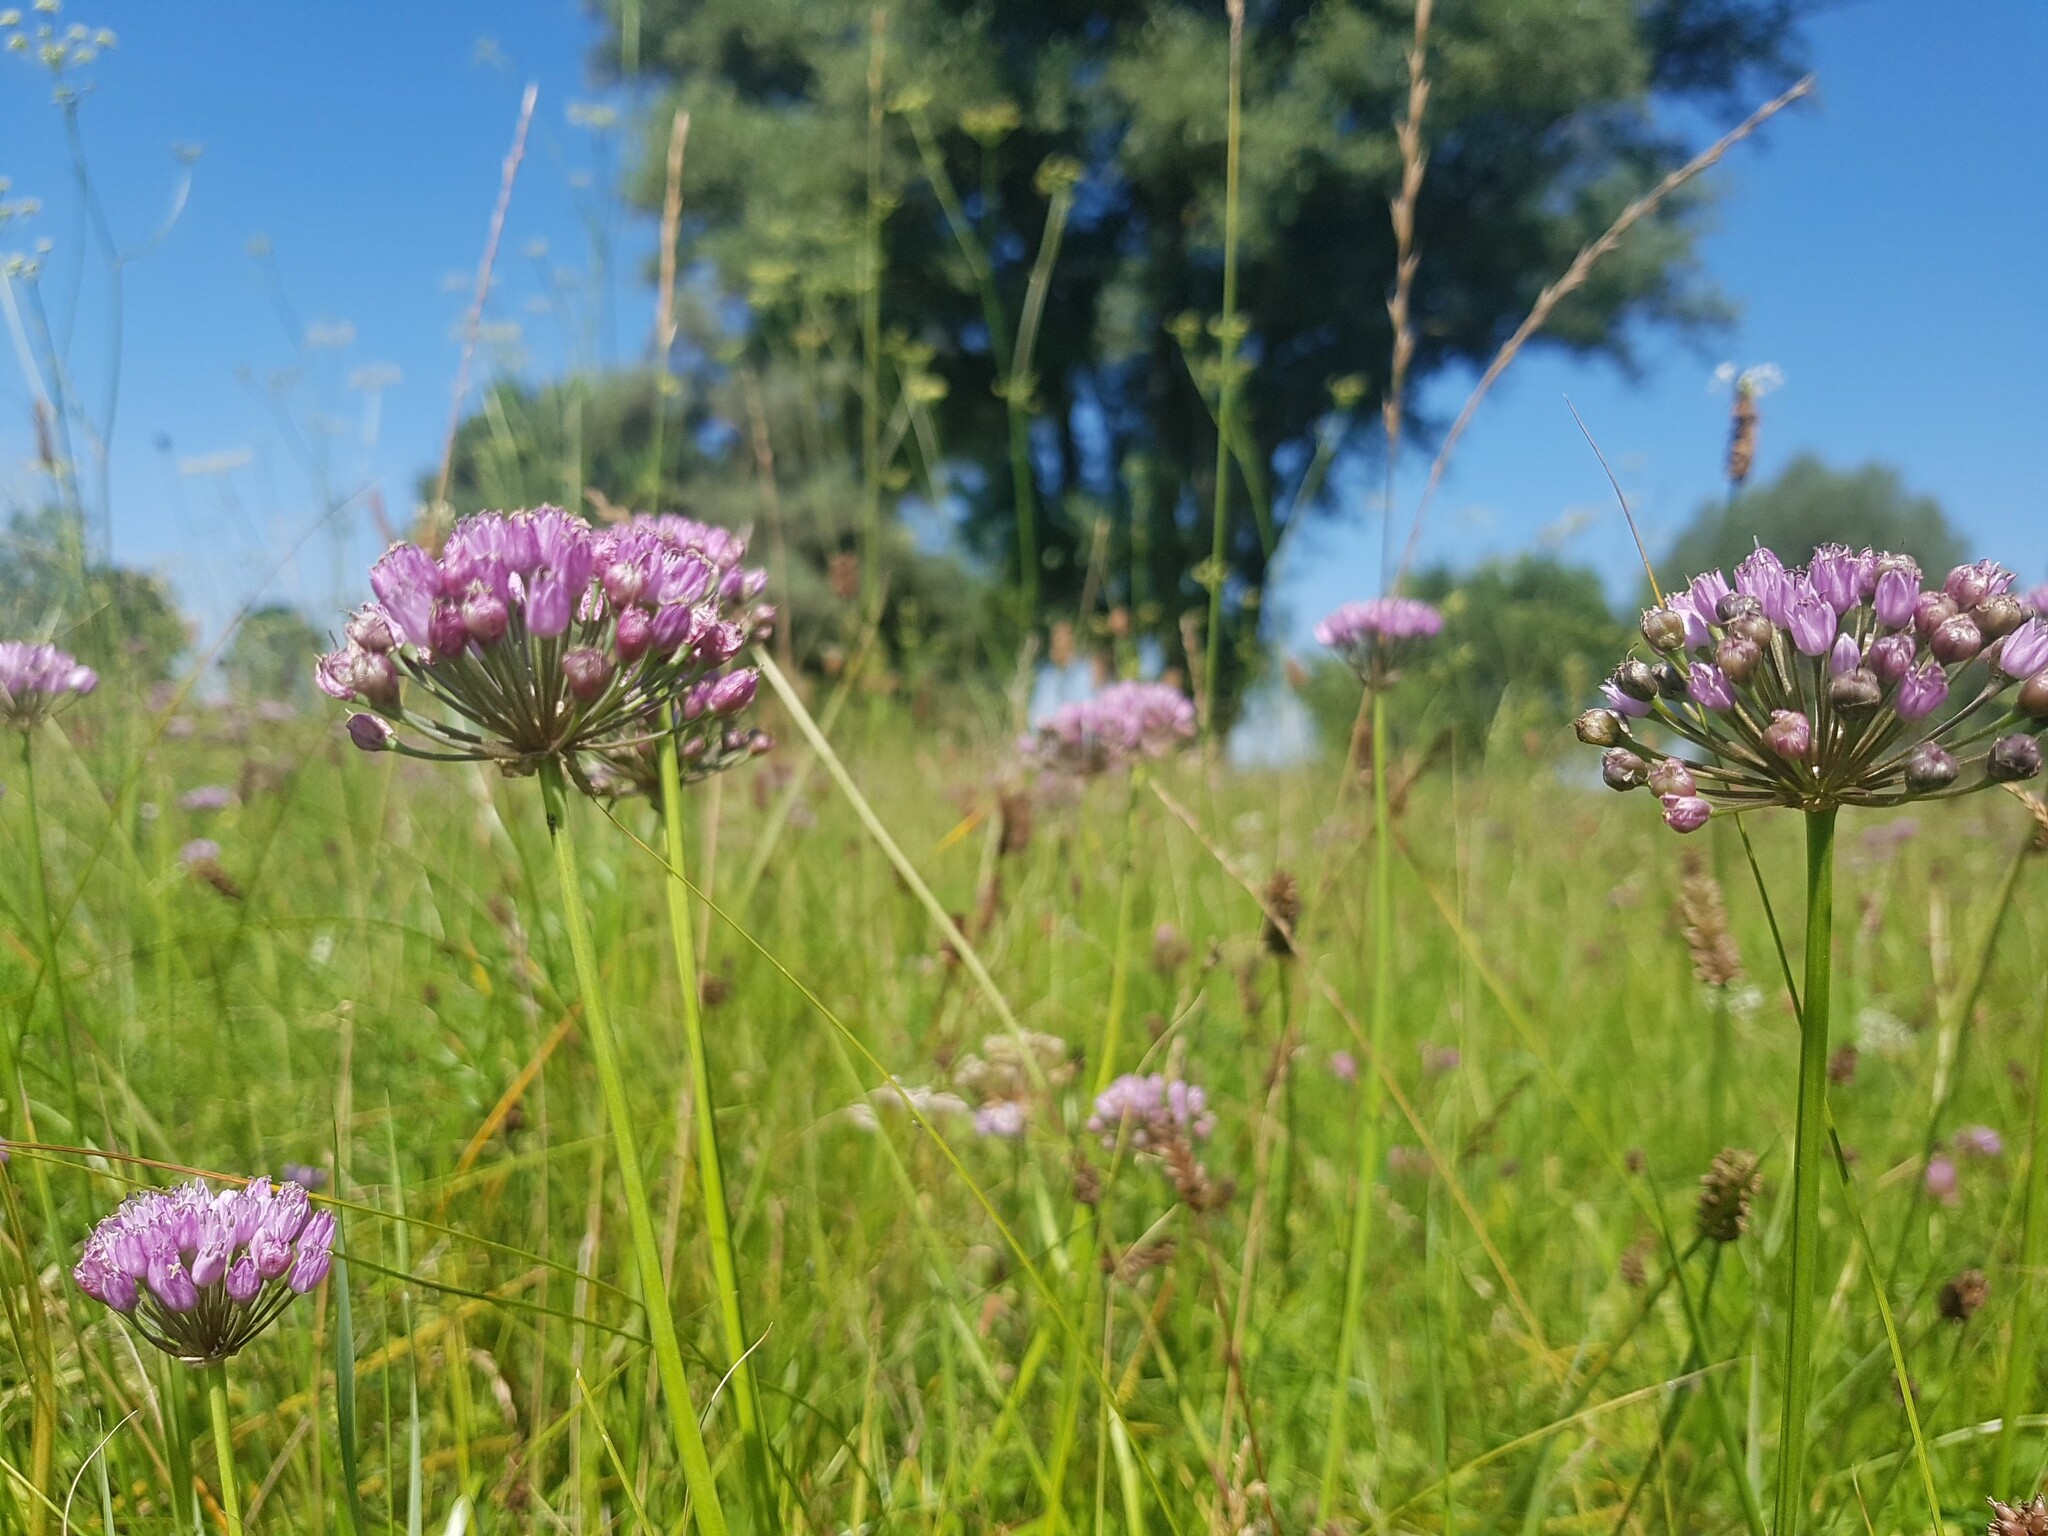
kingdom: Plantae
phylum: Tracheophyta
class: Liliopsida
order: Asparagales
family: Amaryllidaceae
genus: Allium
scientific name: Allium angulosum
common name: Mouse garlic
